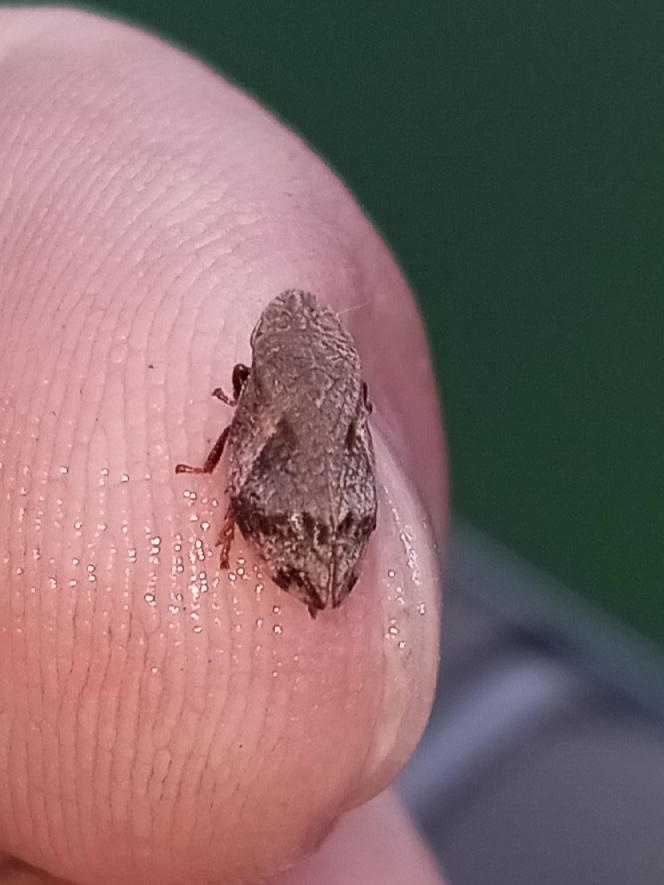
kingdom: Animalia
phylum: Arthropoda
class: Insecta
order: Hemiptera
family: Aphrophoridae
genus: Lepyronia
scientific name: Lepyronia quadrangularis
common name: Diamond-backed spittlebug
